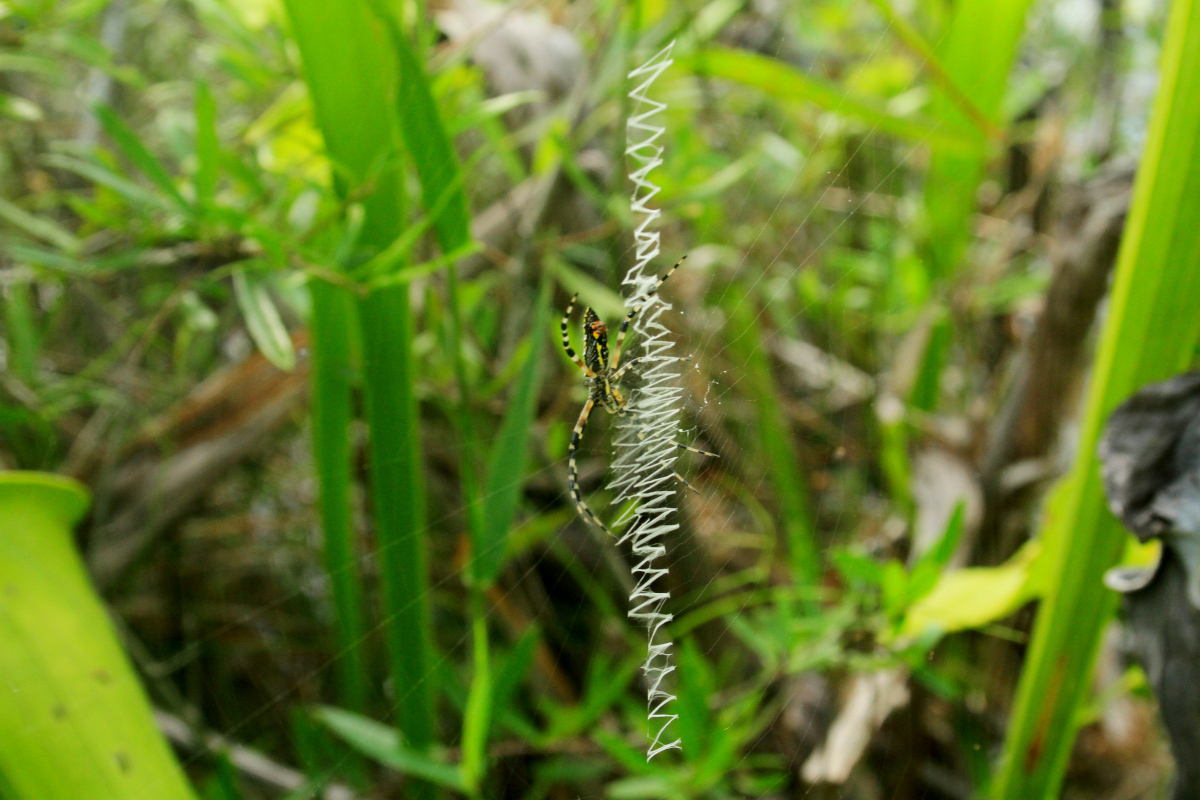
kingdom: Animalia
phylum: Arthropoda
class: Arachnida
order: Araneae
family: Araneidae
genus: Argiope
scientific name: Argiope aurantia
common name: Orb weavers
